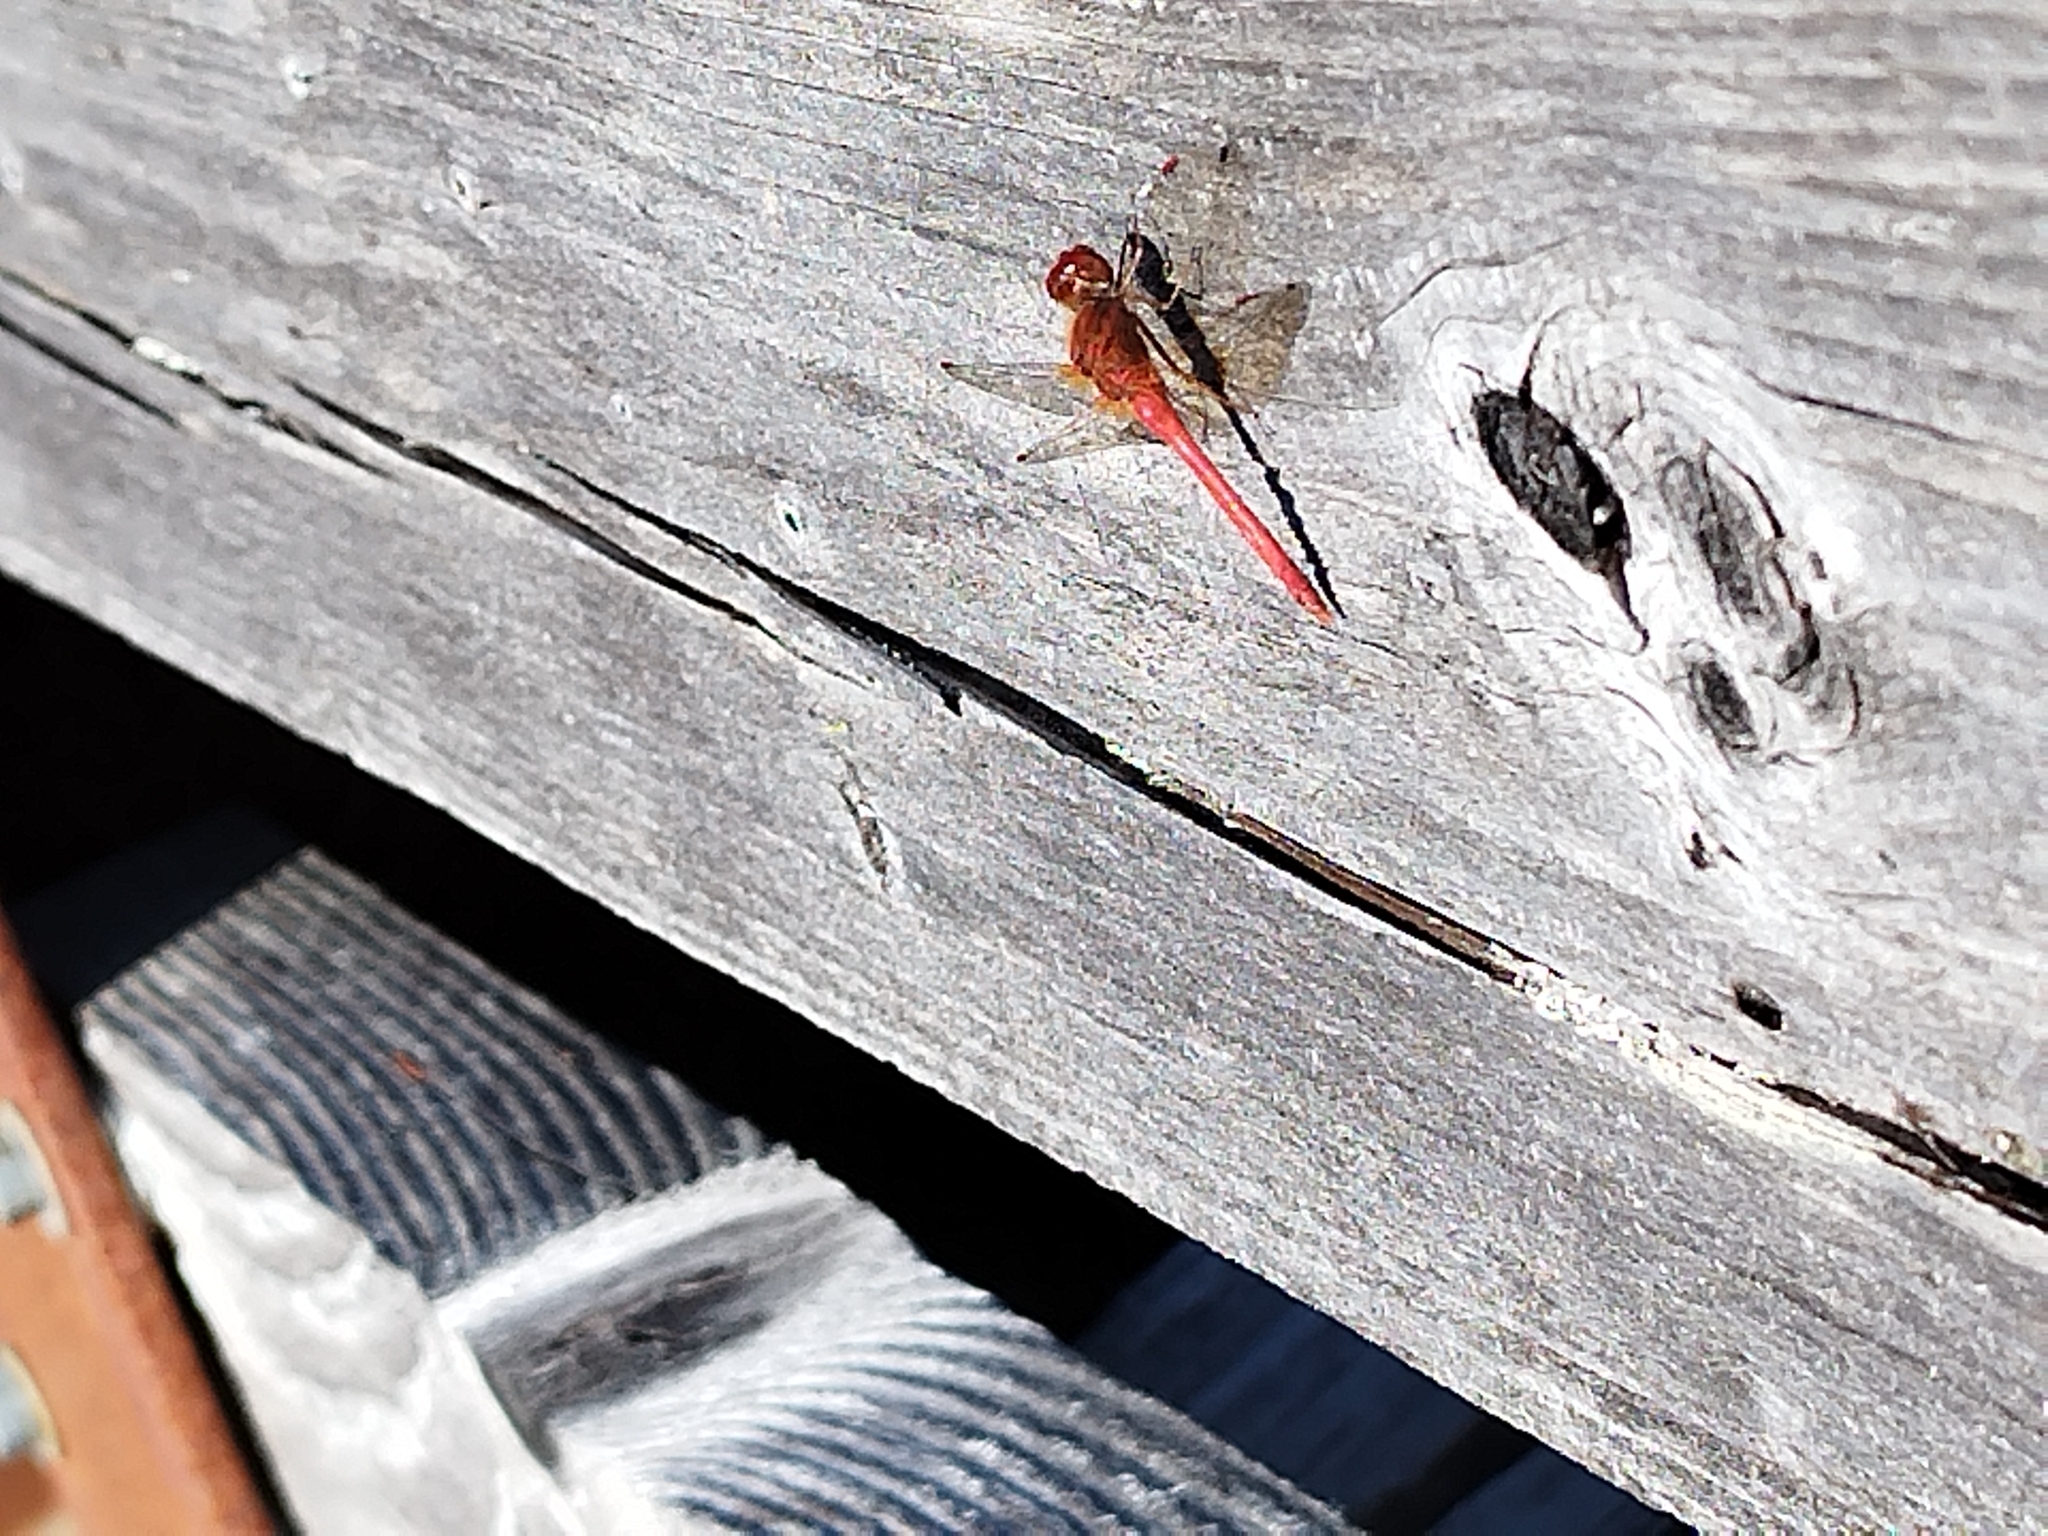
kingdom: Animalia
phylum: Arthropoda
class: Insecta
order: Odonata
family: Libellulidae
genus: Sympetrum
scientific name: Sympetrum vicinum
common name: Autumn meadowhawk
